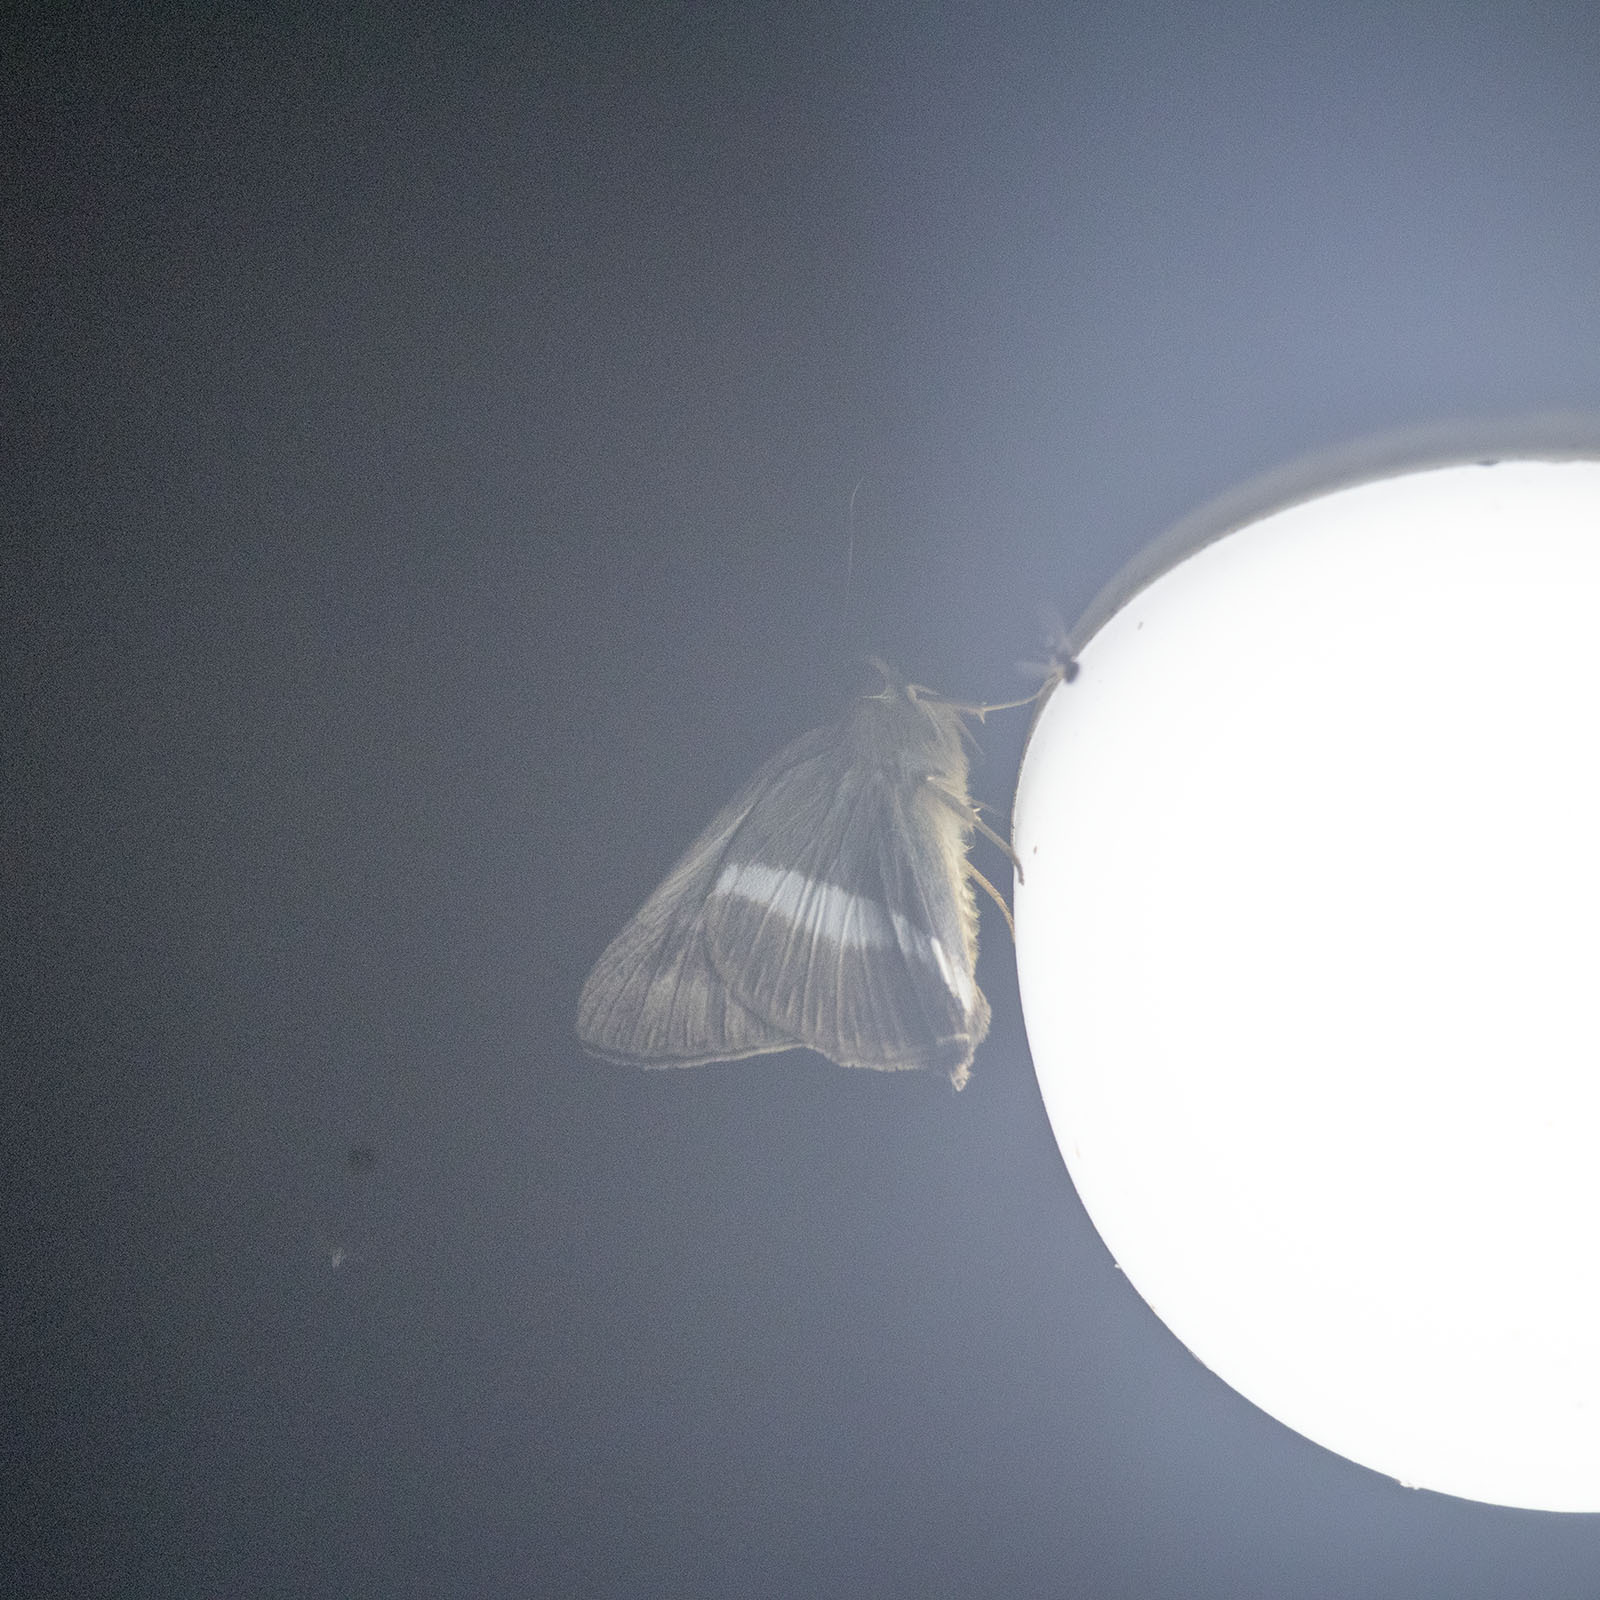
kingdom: Animalia
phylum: Arthropoda
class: Insecta
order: Lepidoptera
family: Hesperiidae
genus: Hasora
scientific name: Hasora taminatus
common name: White banded awl
